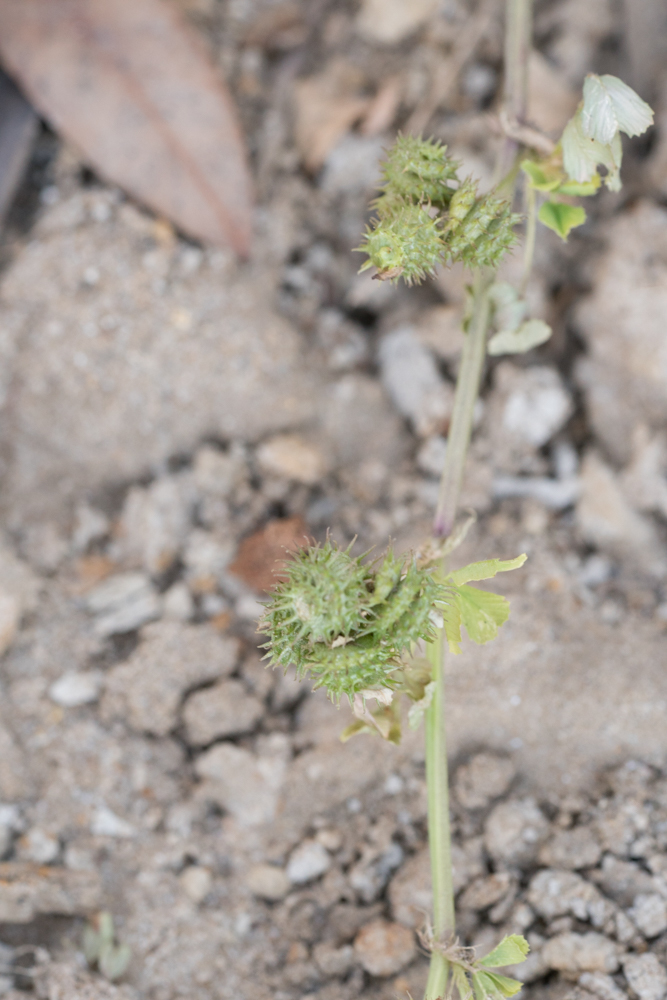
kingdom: Plantae
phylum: Tracheophyta
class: Magnoliopsida
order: Fabales
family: Fabaceae
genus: Medicago
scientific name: Medicago polymorpha
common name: Burclover
